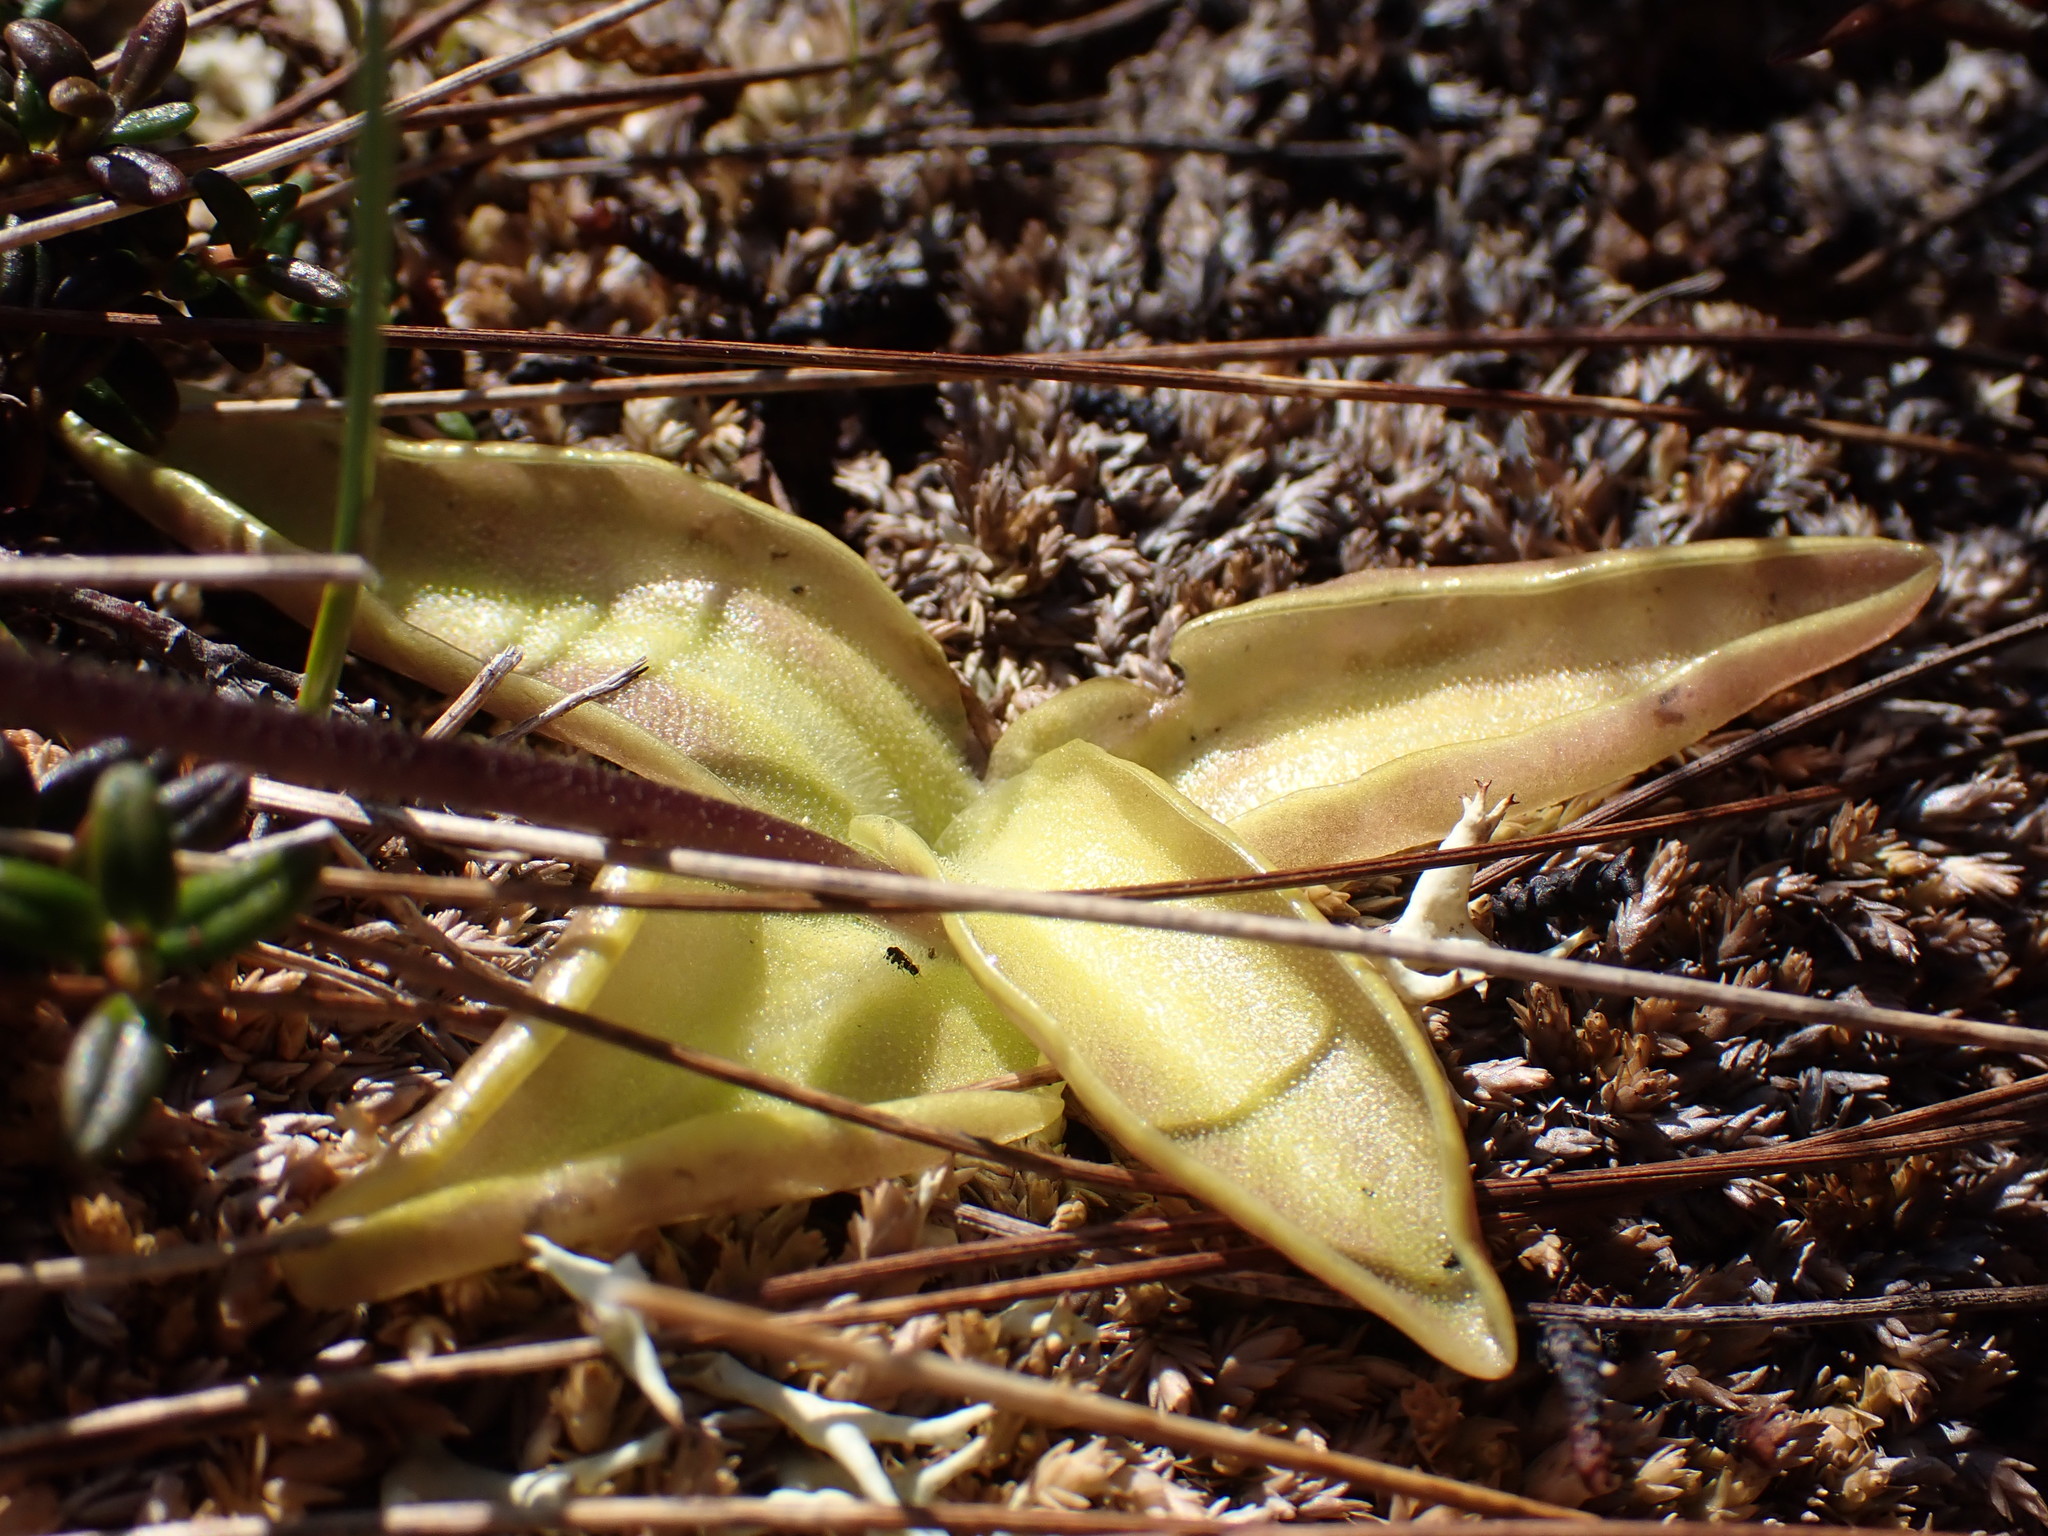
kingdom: Plantae
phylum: Tracheophyta
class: Magnoliopsida
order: Lamiales
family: Lentibulariaceae
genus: Pinguicula
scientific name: Pinguicula vulgaris
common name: Common butterwort
